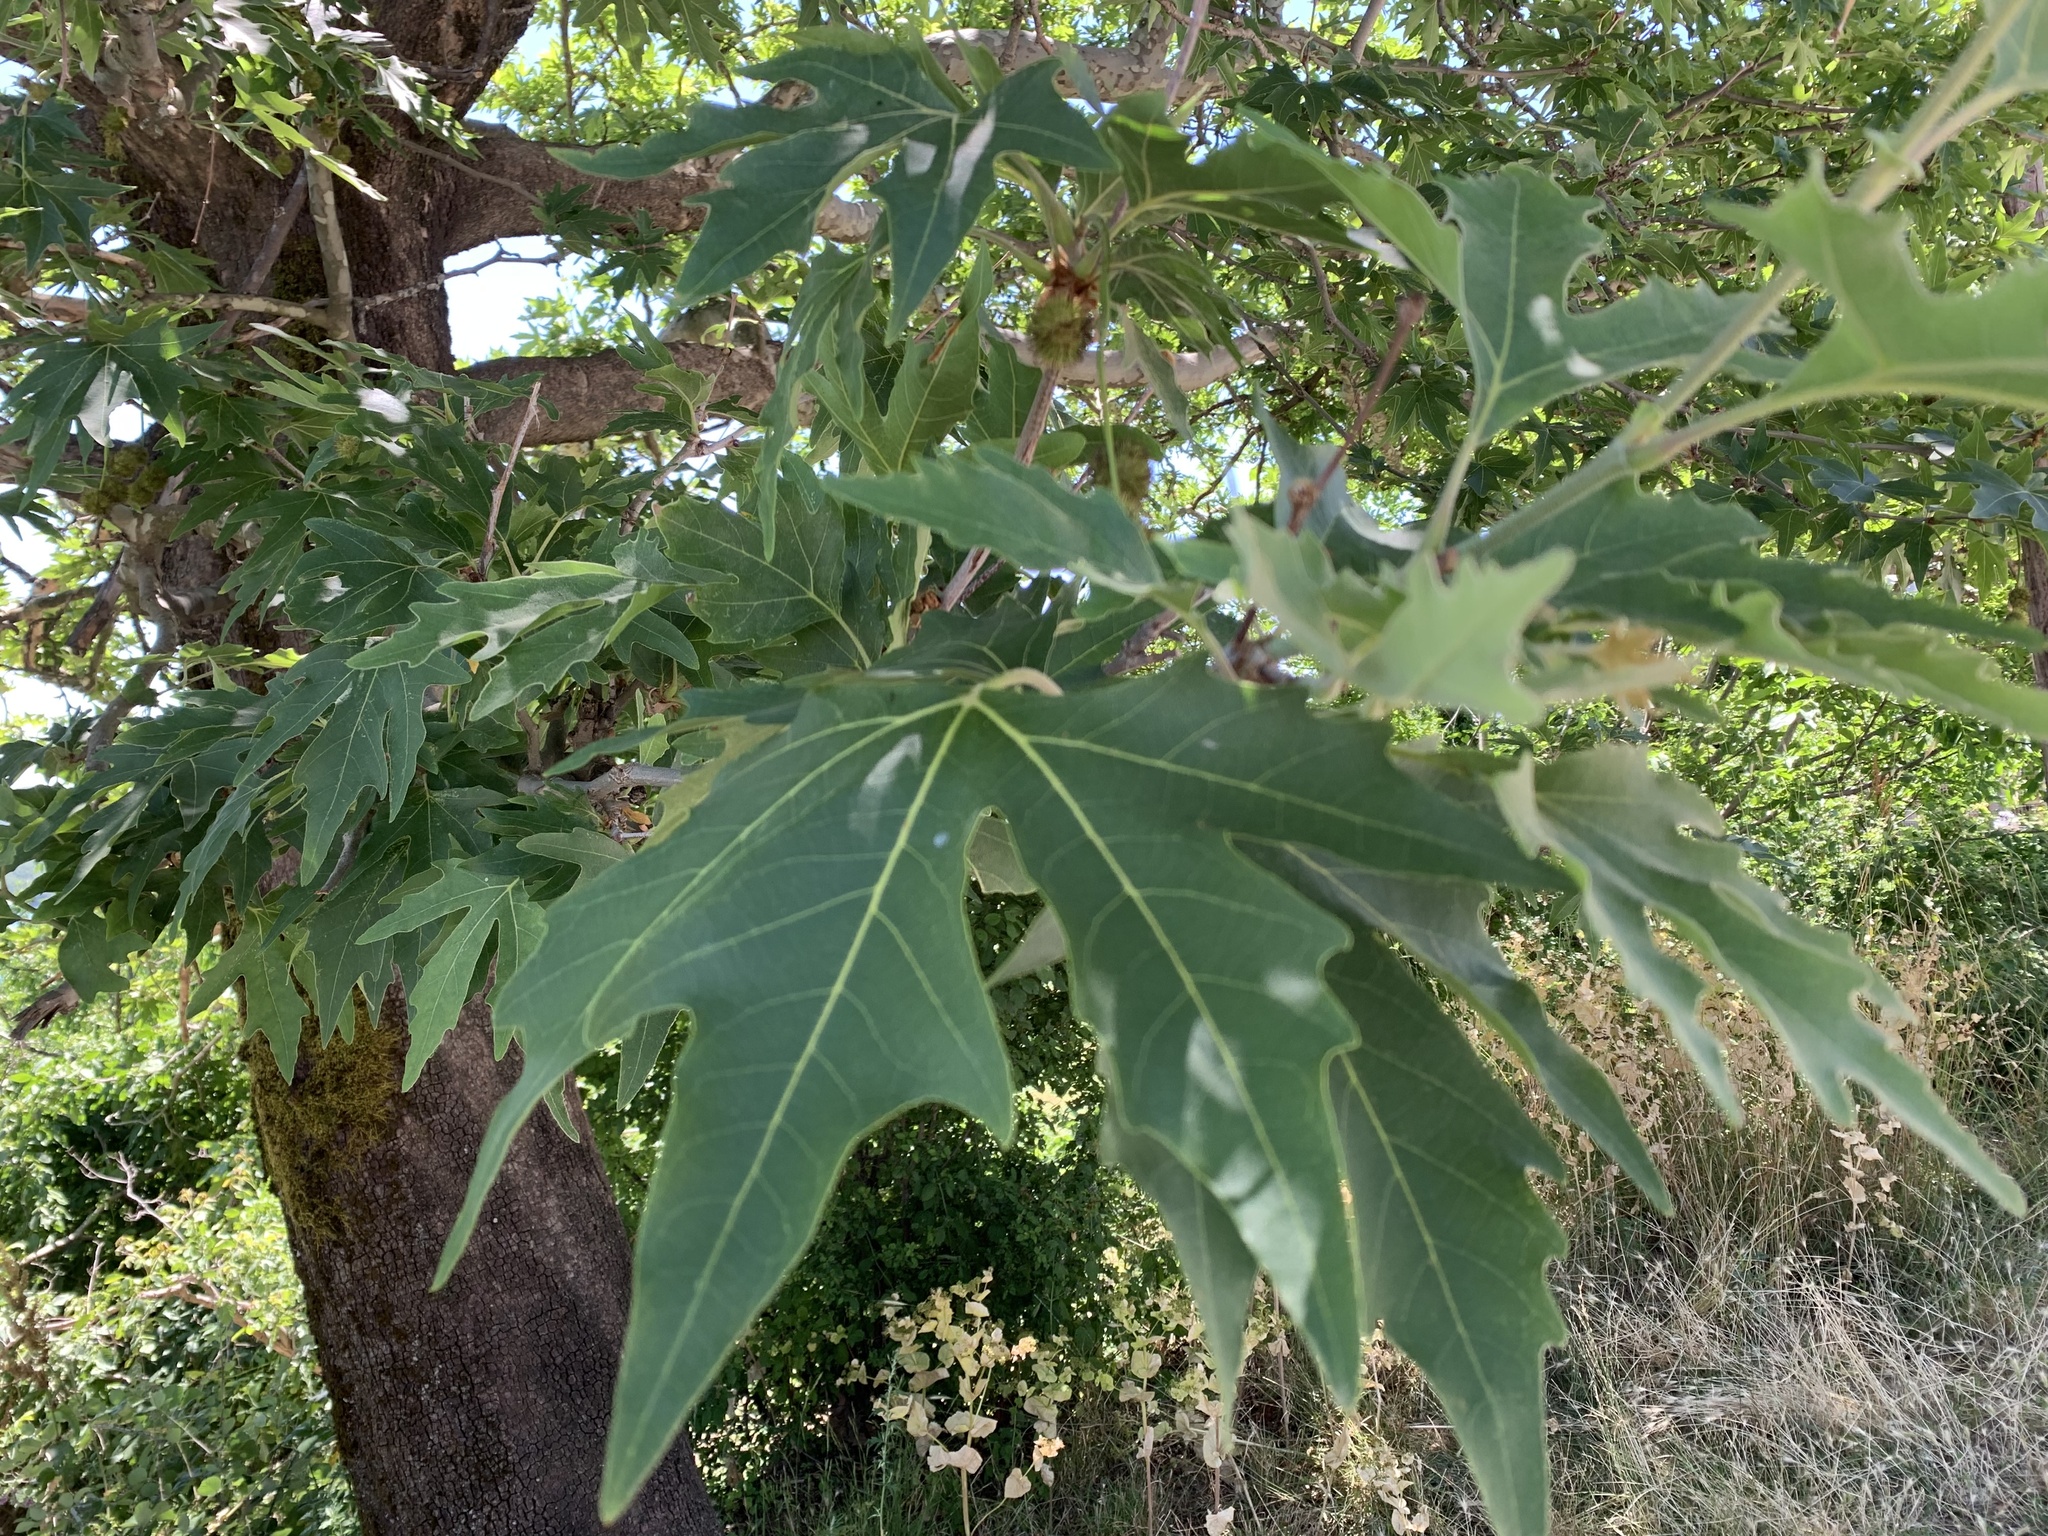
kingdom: Plantae
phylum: Tracheophyta
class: Magnoliopsida
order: Proteales
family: Platanaceae
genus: Platanus
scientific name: Platanus orientalis
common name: Oriental plane
